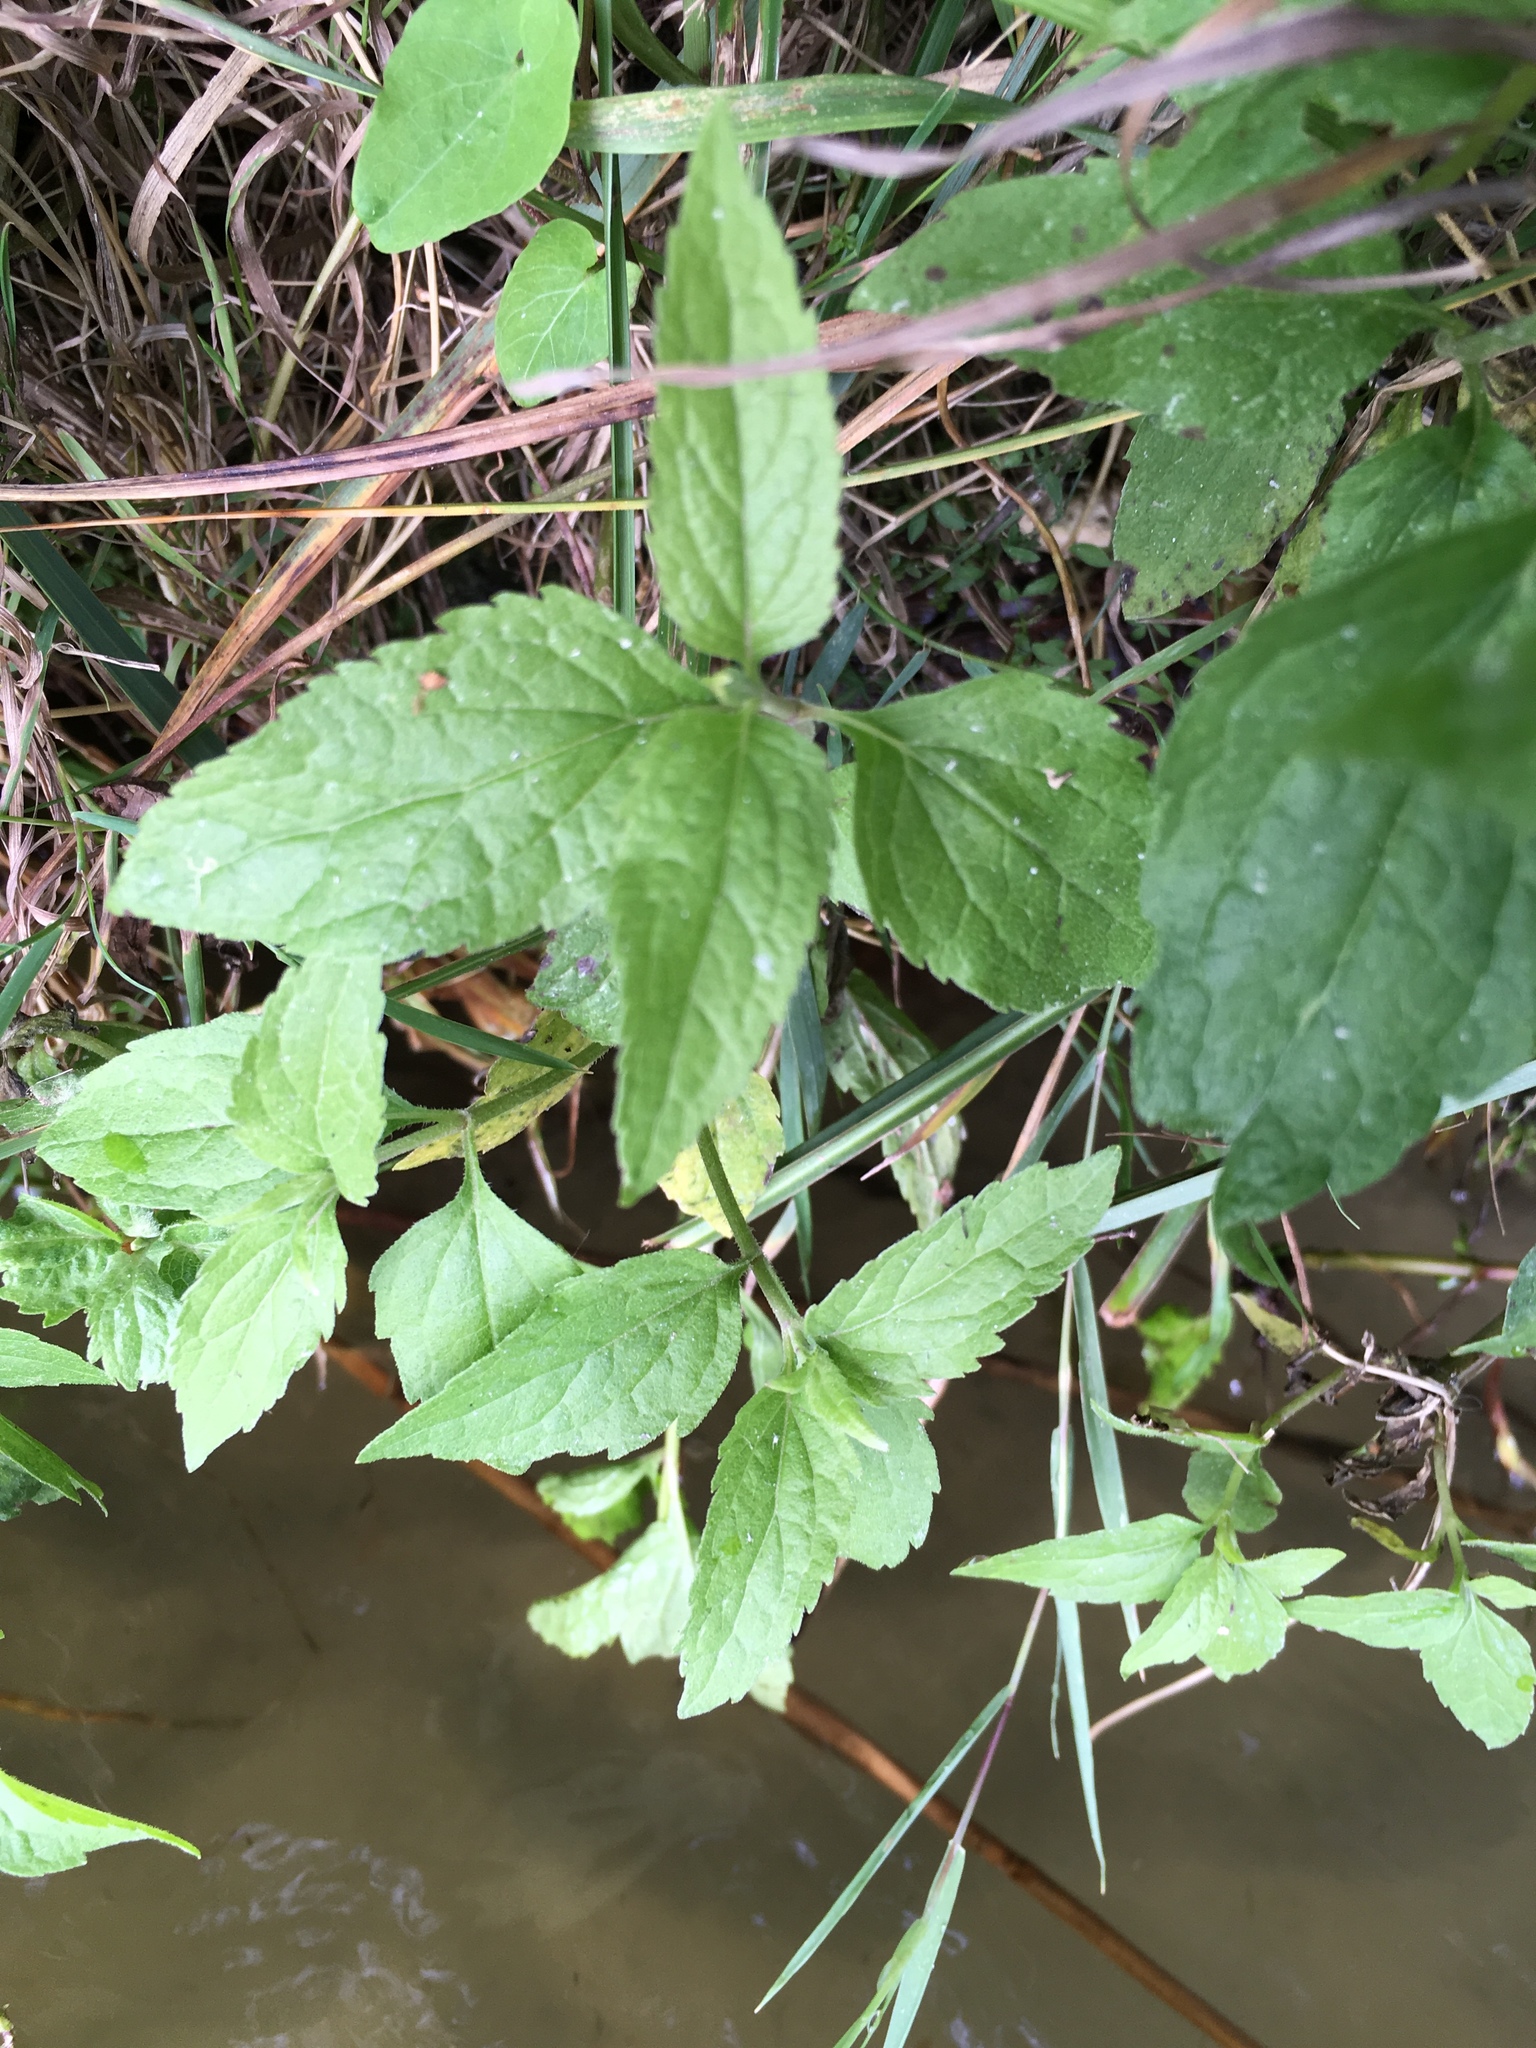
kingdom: Plantae
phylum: Tracheophyta
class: Magnoliopsida
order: Asterales
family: Asteraceae
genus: Eupatorium
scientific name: Eupatorium cannabinum
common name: Hemp-agrimony
